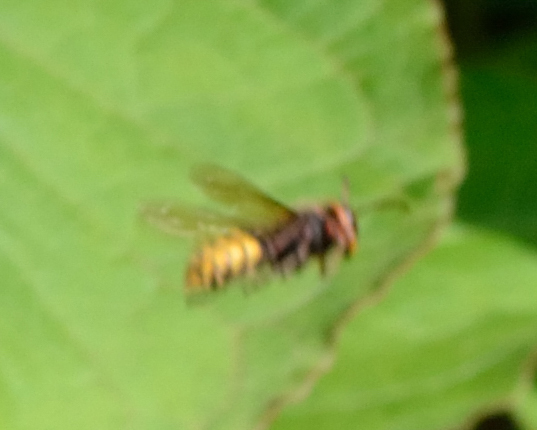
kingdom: Animalia
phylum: Arthropoda
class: Insecta
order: Hymenoptera
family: Vespidae
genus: Vespa
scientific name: Vespa crabro
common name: Hornet
